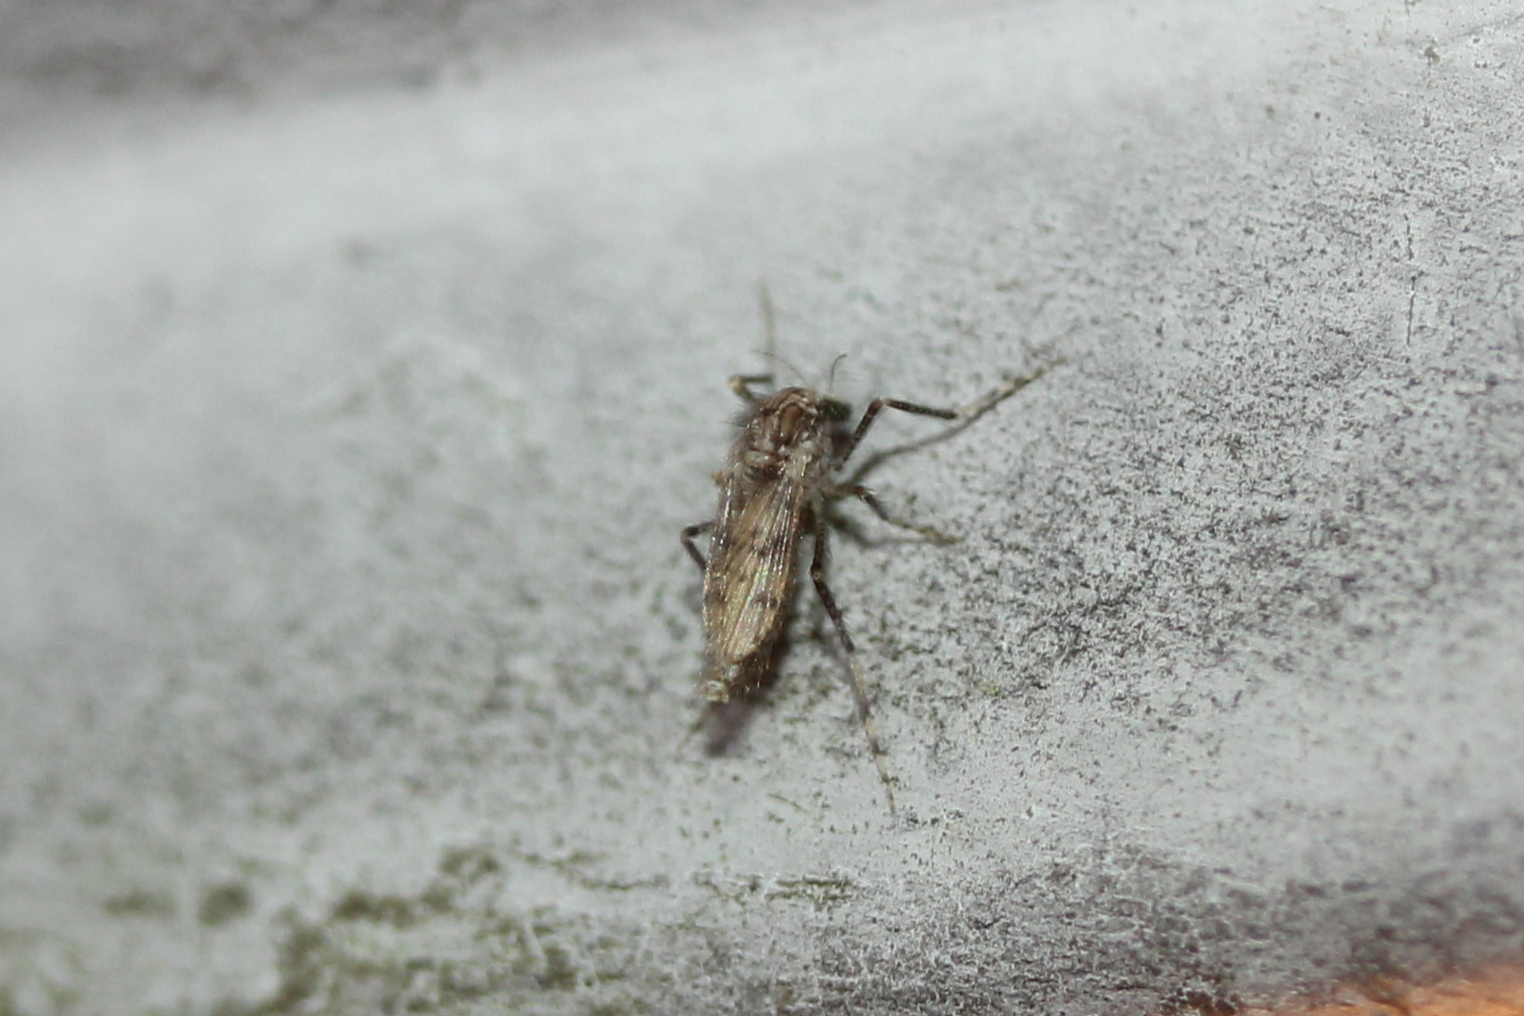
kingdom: Animalia
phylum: Arthropoda
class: Insecta
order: Diptera
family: Chaoboridae
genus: Chaoborus
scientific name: Chaoborus punctipennis
